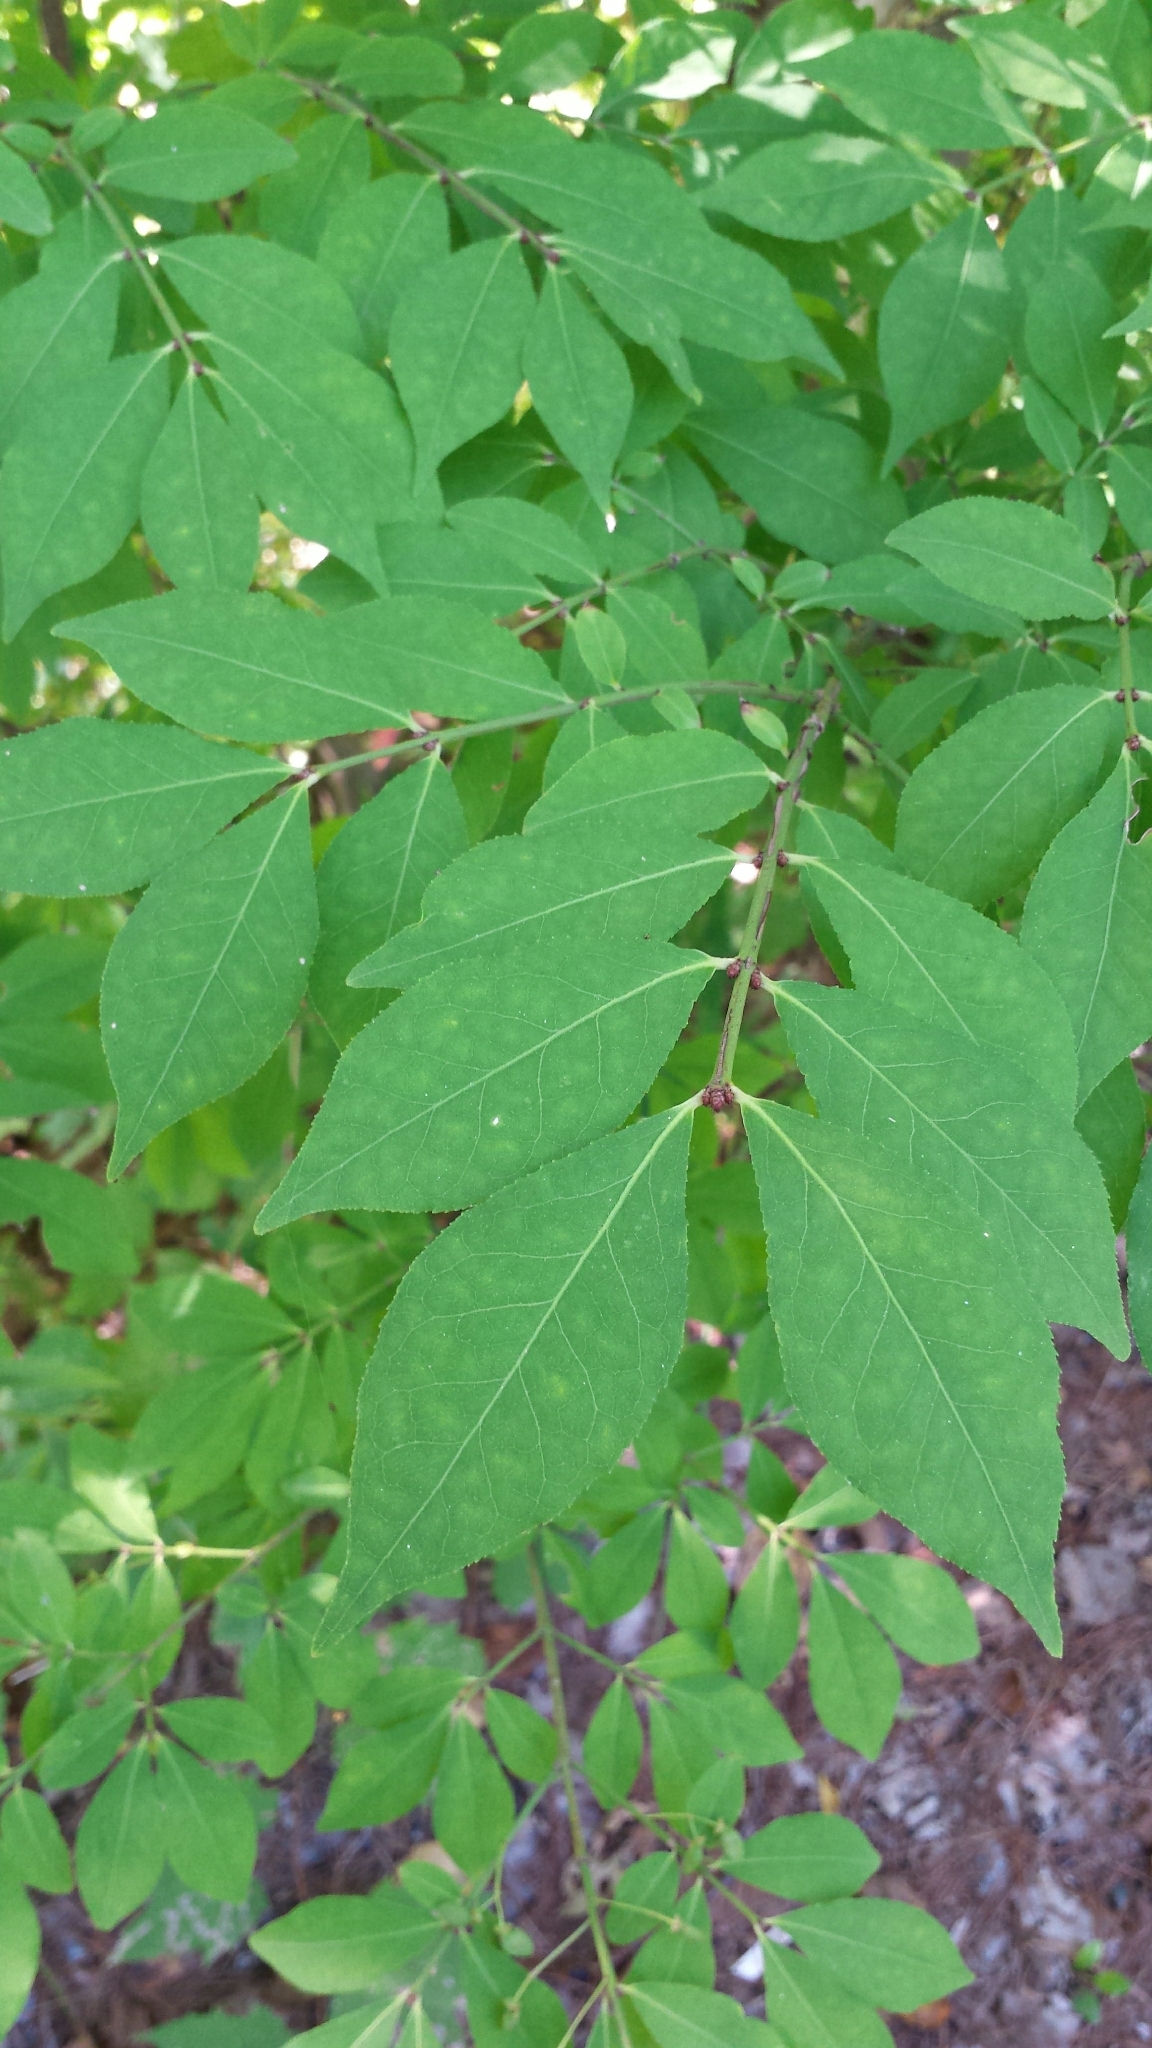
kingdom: Plantae
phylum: Tracheophyta
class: Magnoliopsida
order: Celastrales
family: Celastraceae
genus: Euonymus
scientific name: Euonymus alatus
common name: Winged euonymus
